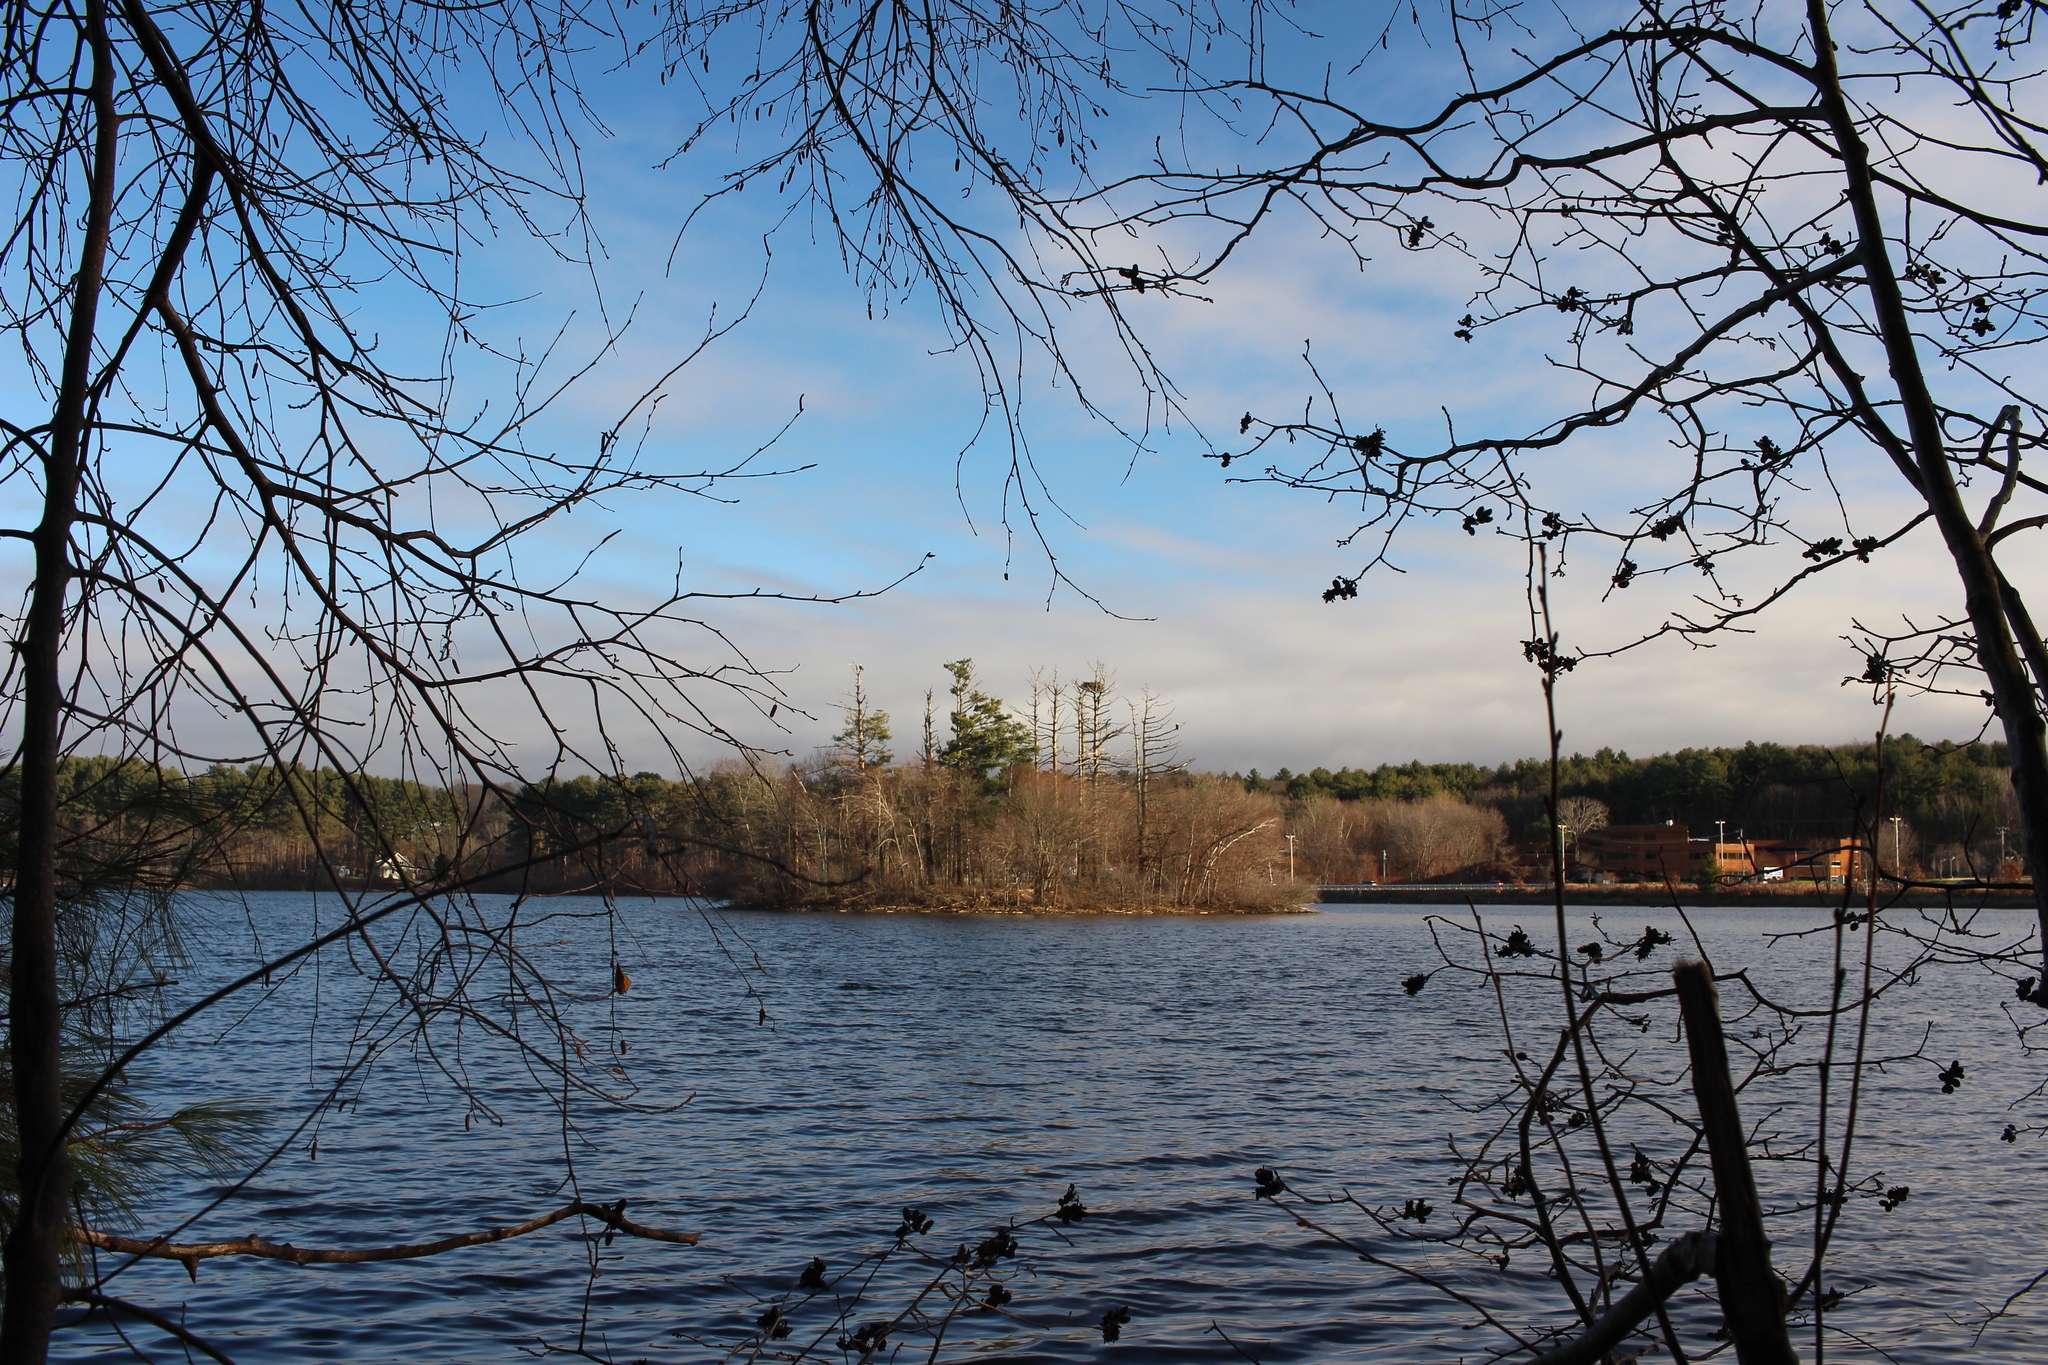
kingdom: Animalia
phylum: Chordata
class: Aves
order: Accipitriformes
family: Accipitridae
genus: Haliaeetus
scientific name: Haliaeetus leucocephalus
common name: Bald eagle
